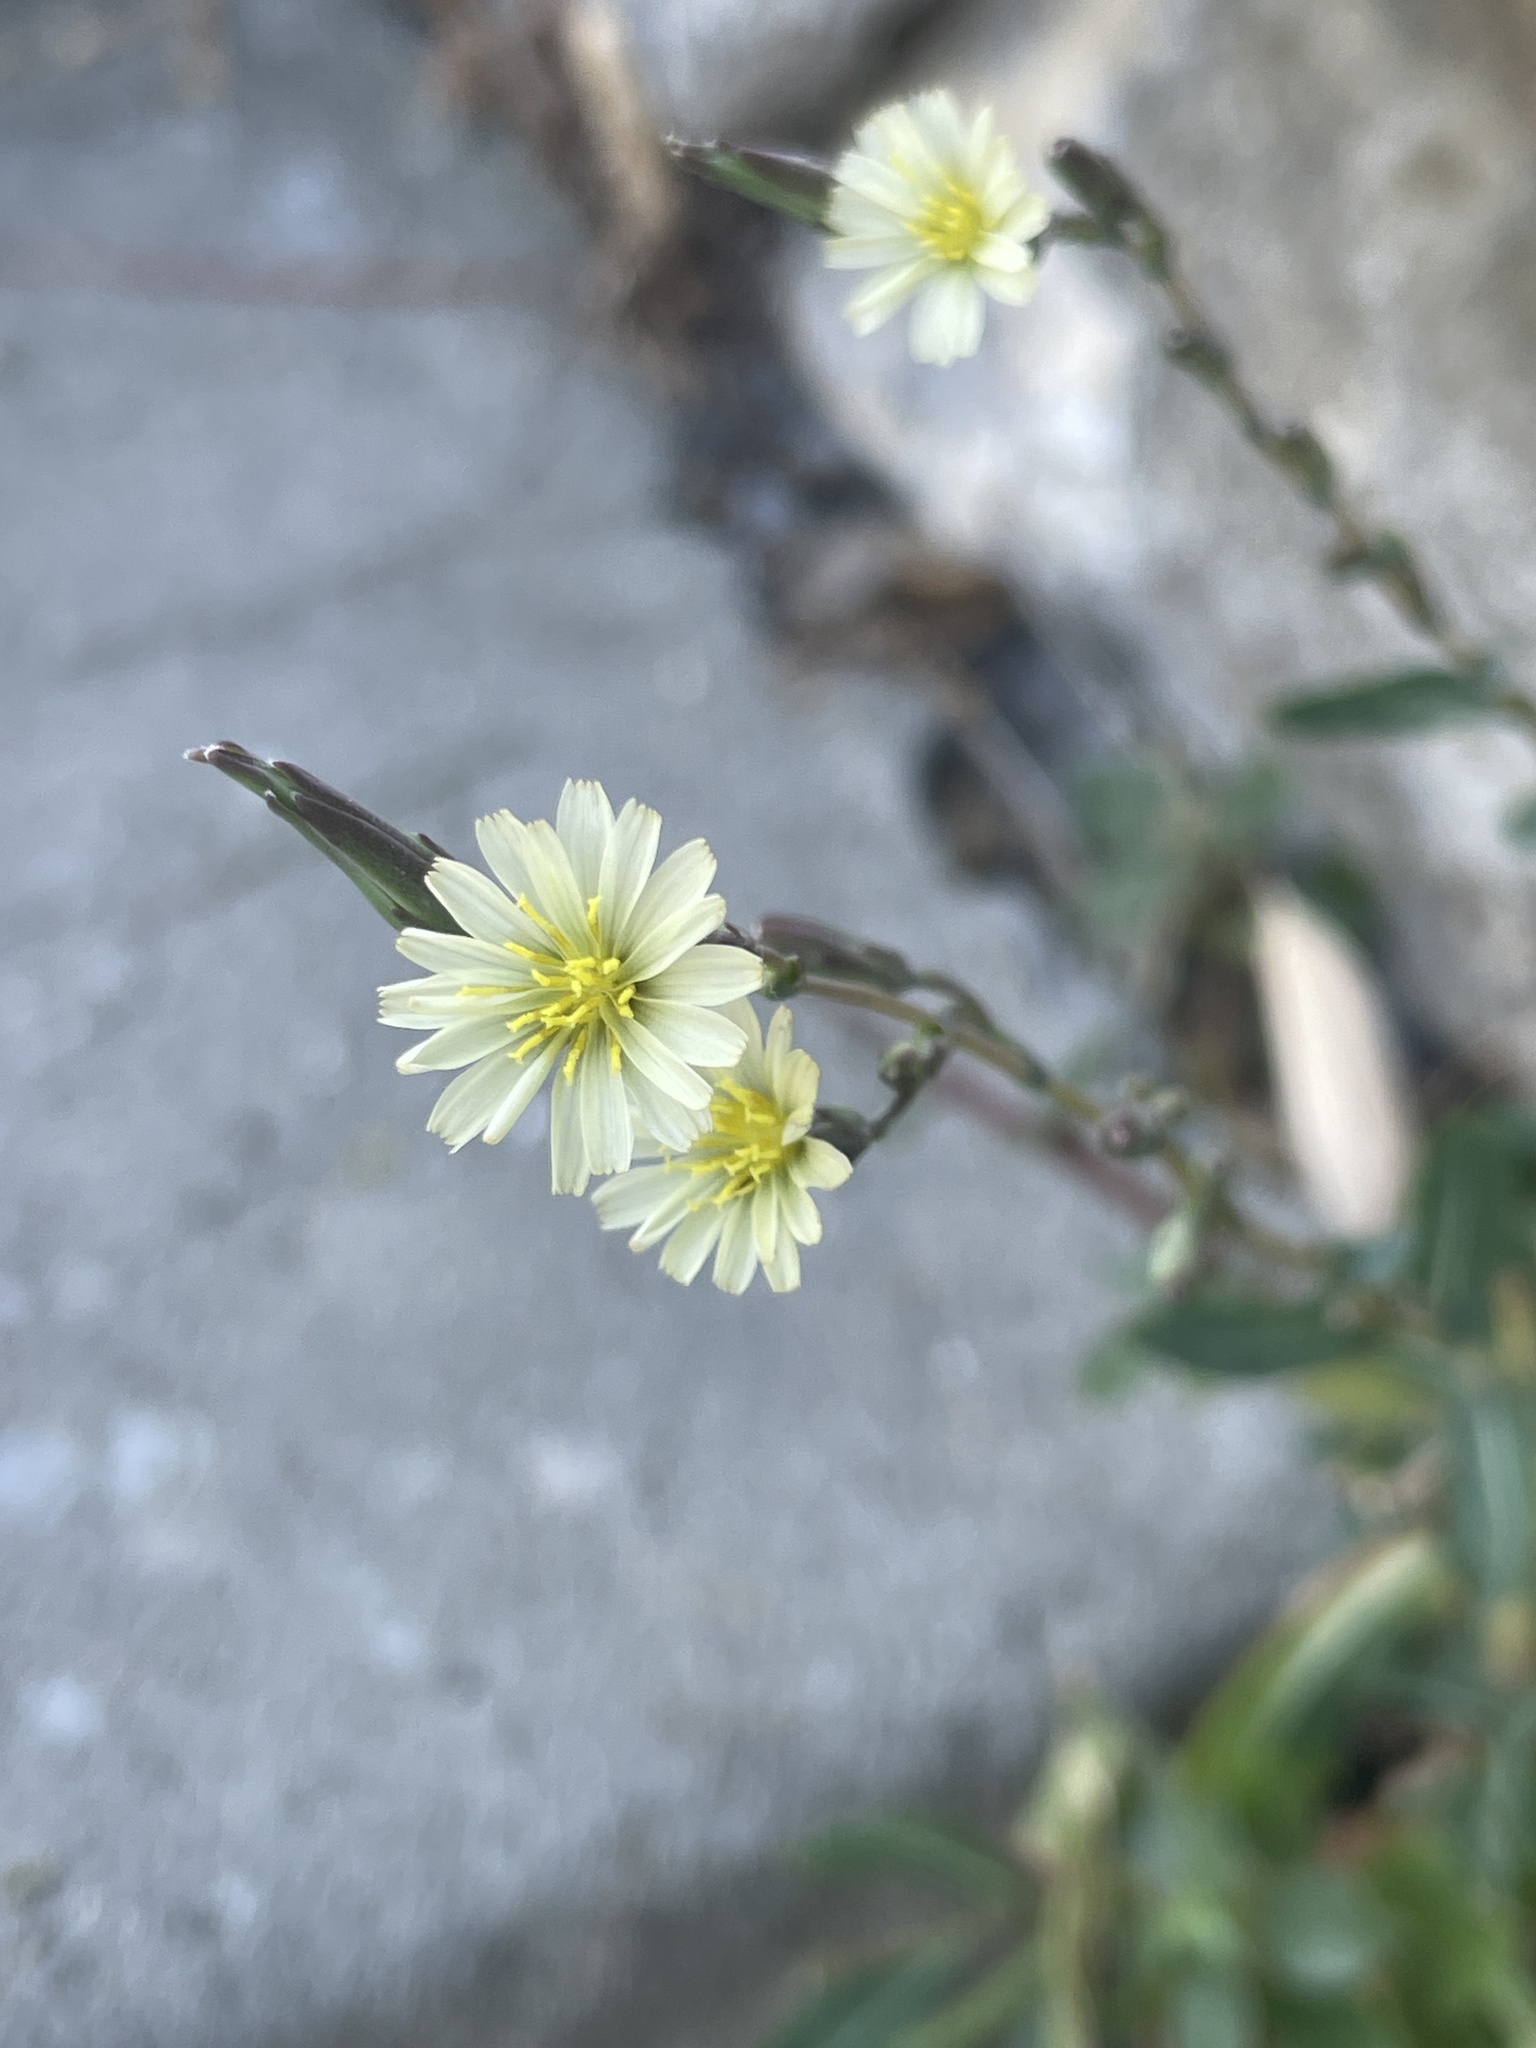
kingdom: Plantae
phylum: Tracheophyta
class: Magnoliopsida
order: Asterales
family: Asteraceae
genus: Lactuca
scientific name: Lactuca saligna
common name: Wild lettuce
